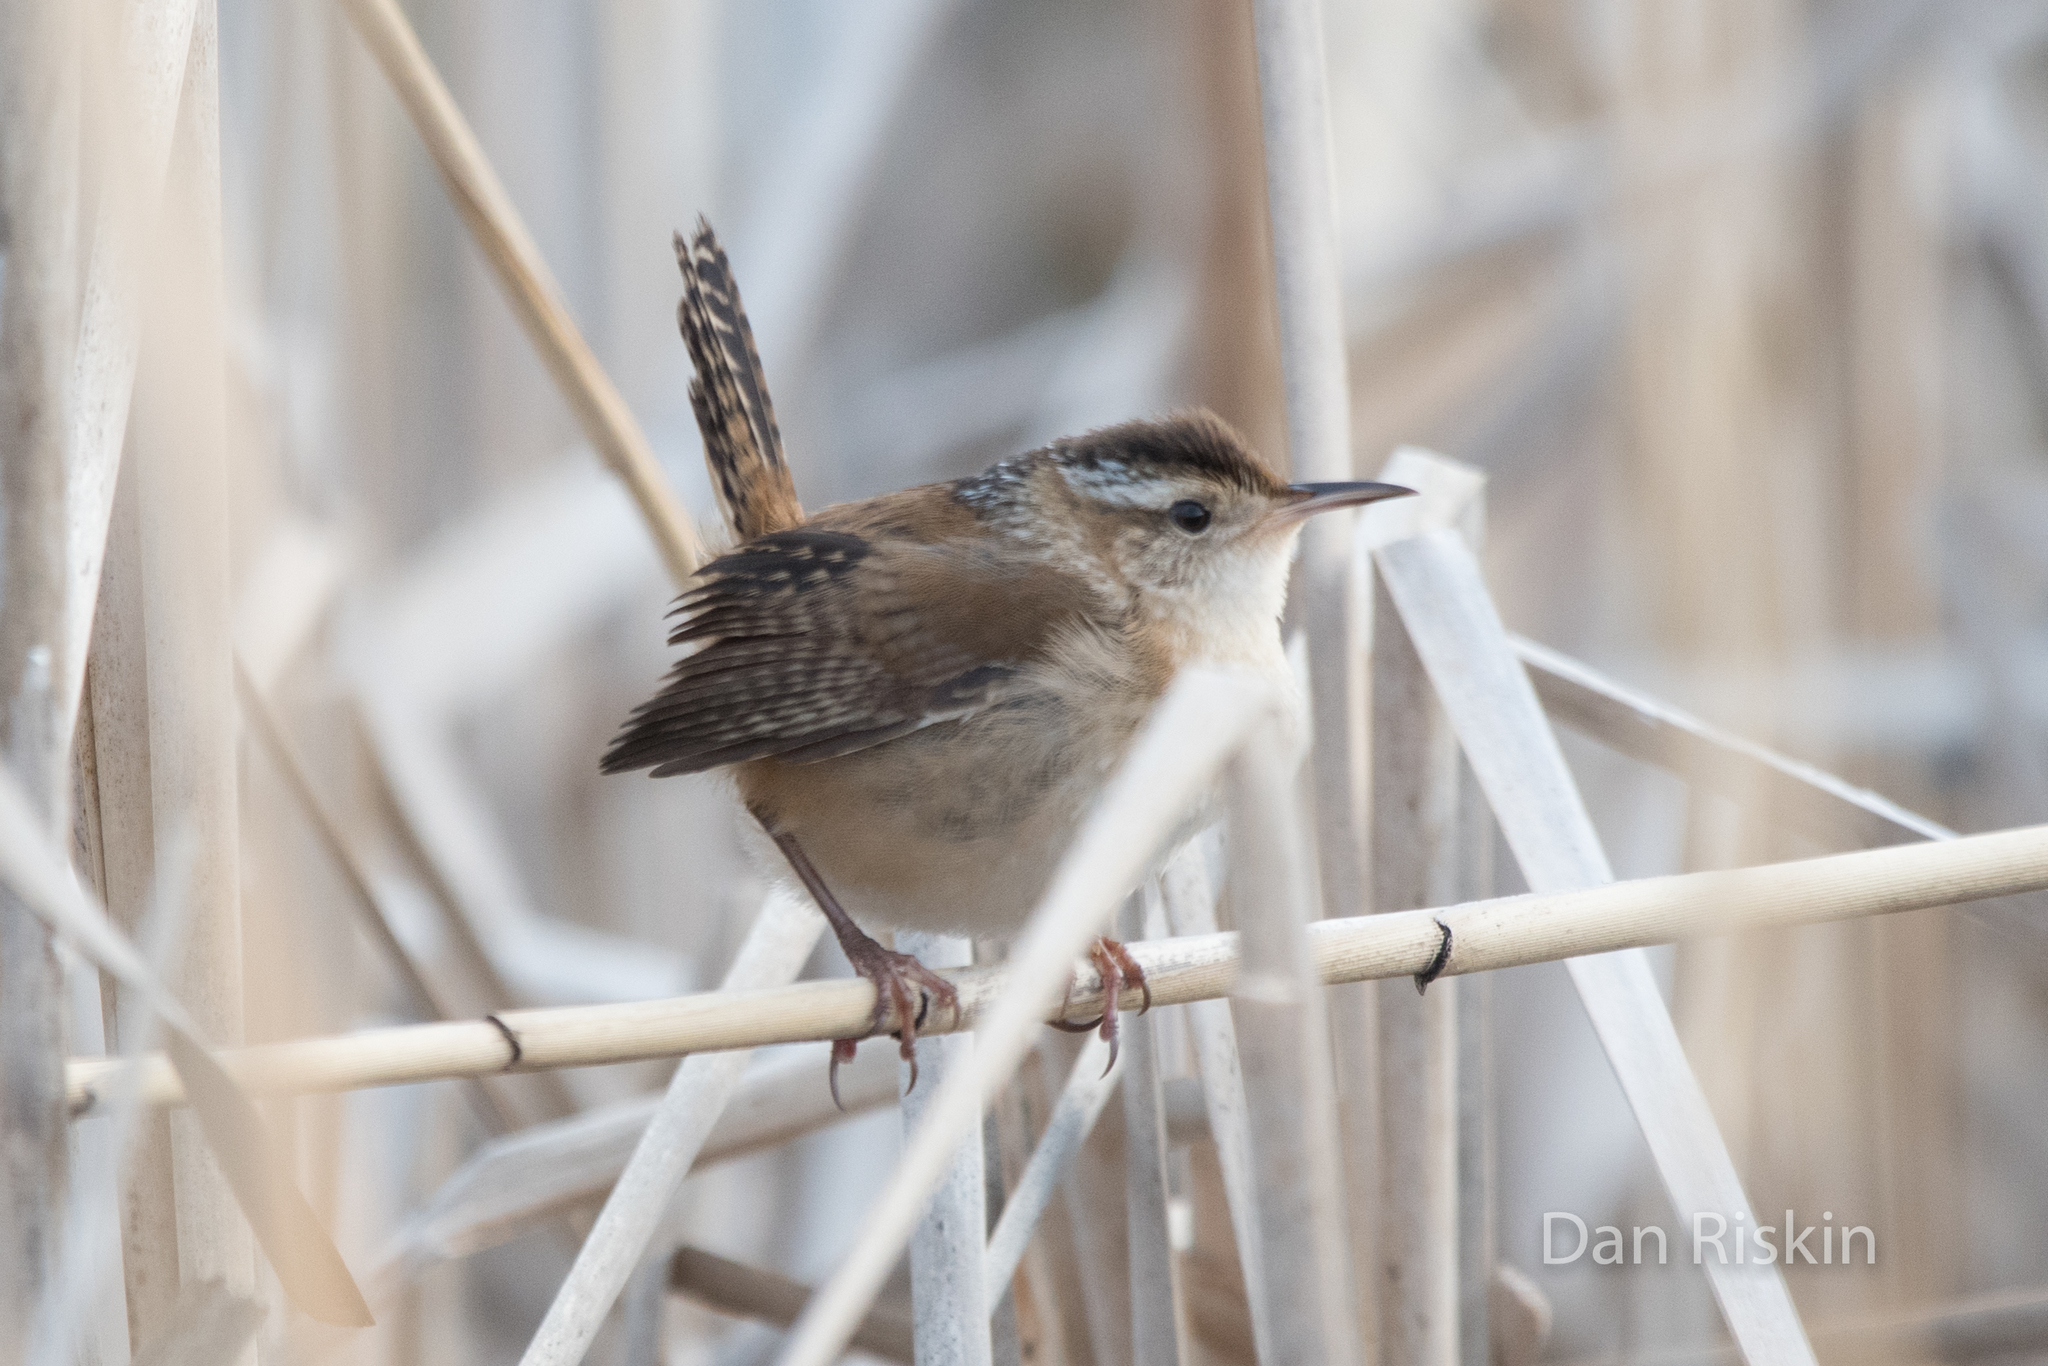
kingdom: Animalia
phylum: Chordata
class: Aves
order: Passeriformes
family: Troglodytidae
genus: Cistothorus
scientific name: Cistothorus palustris
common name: Marsh wren
